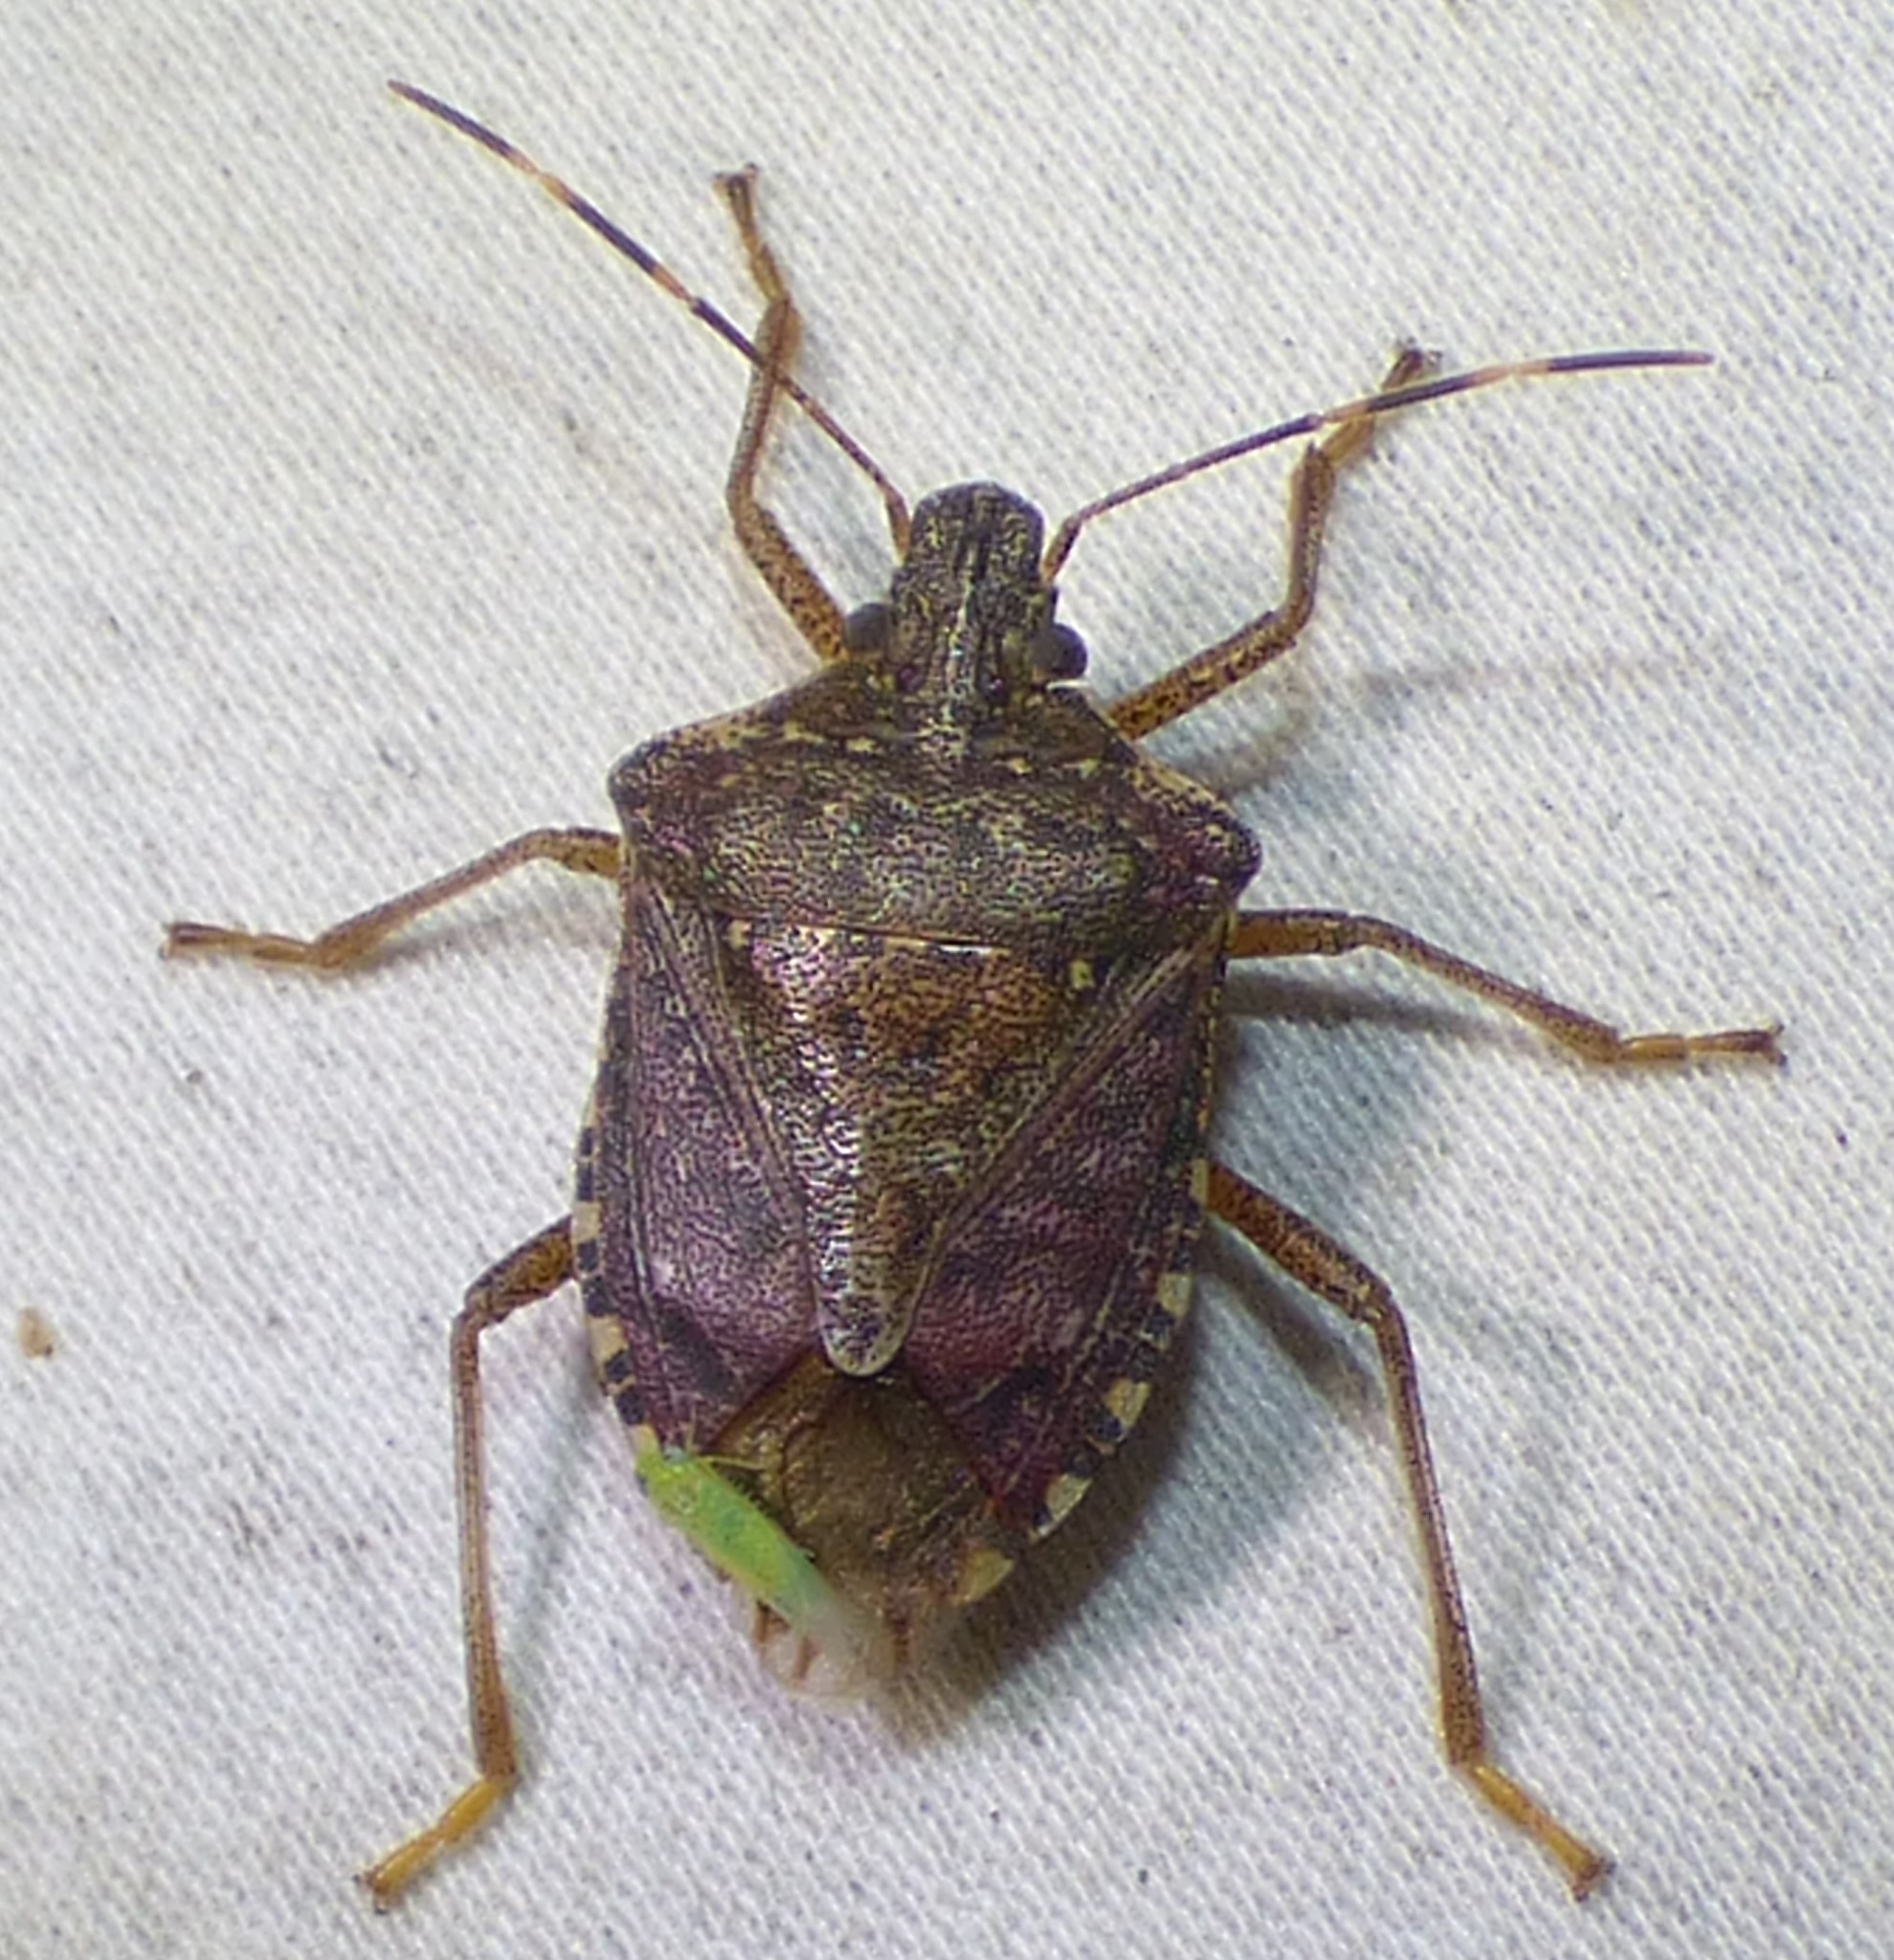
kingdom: Animalia
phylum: Arthropoda
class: Insecta
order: Hemiptera
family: Pentatomidae
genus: Halyomorpha
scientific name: Halyomorpha halys
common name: Brown marmorated stink bug
